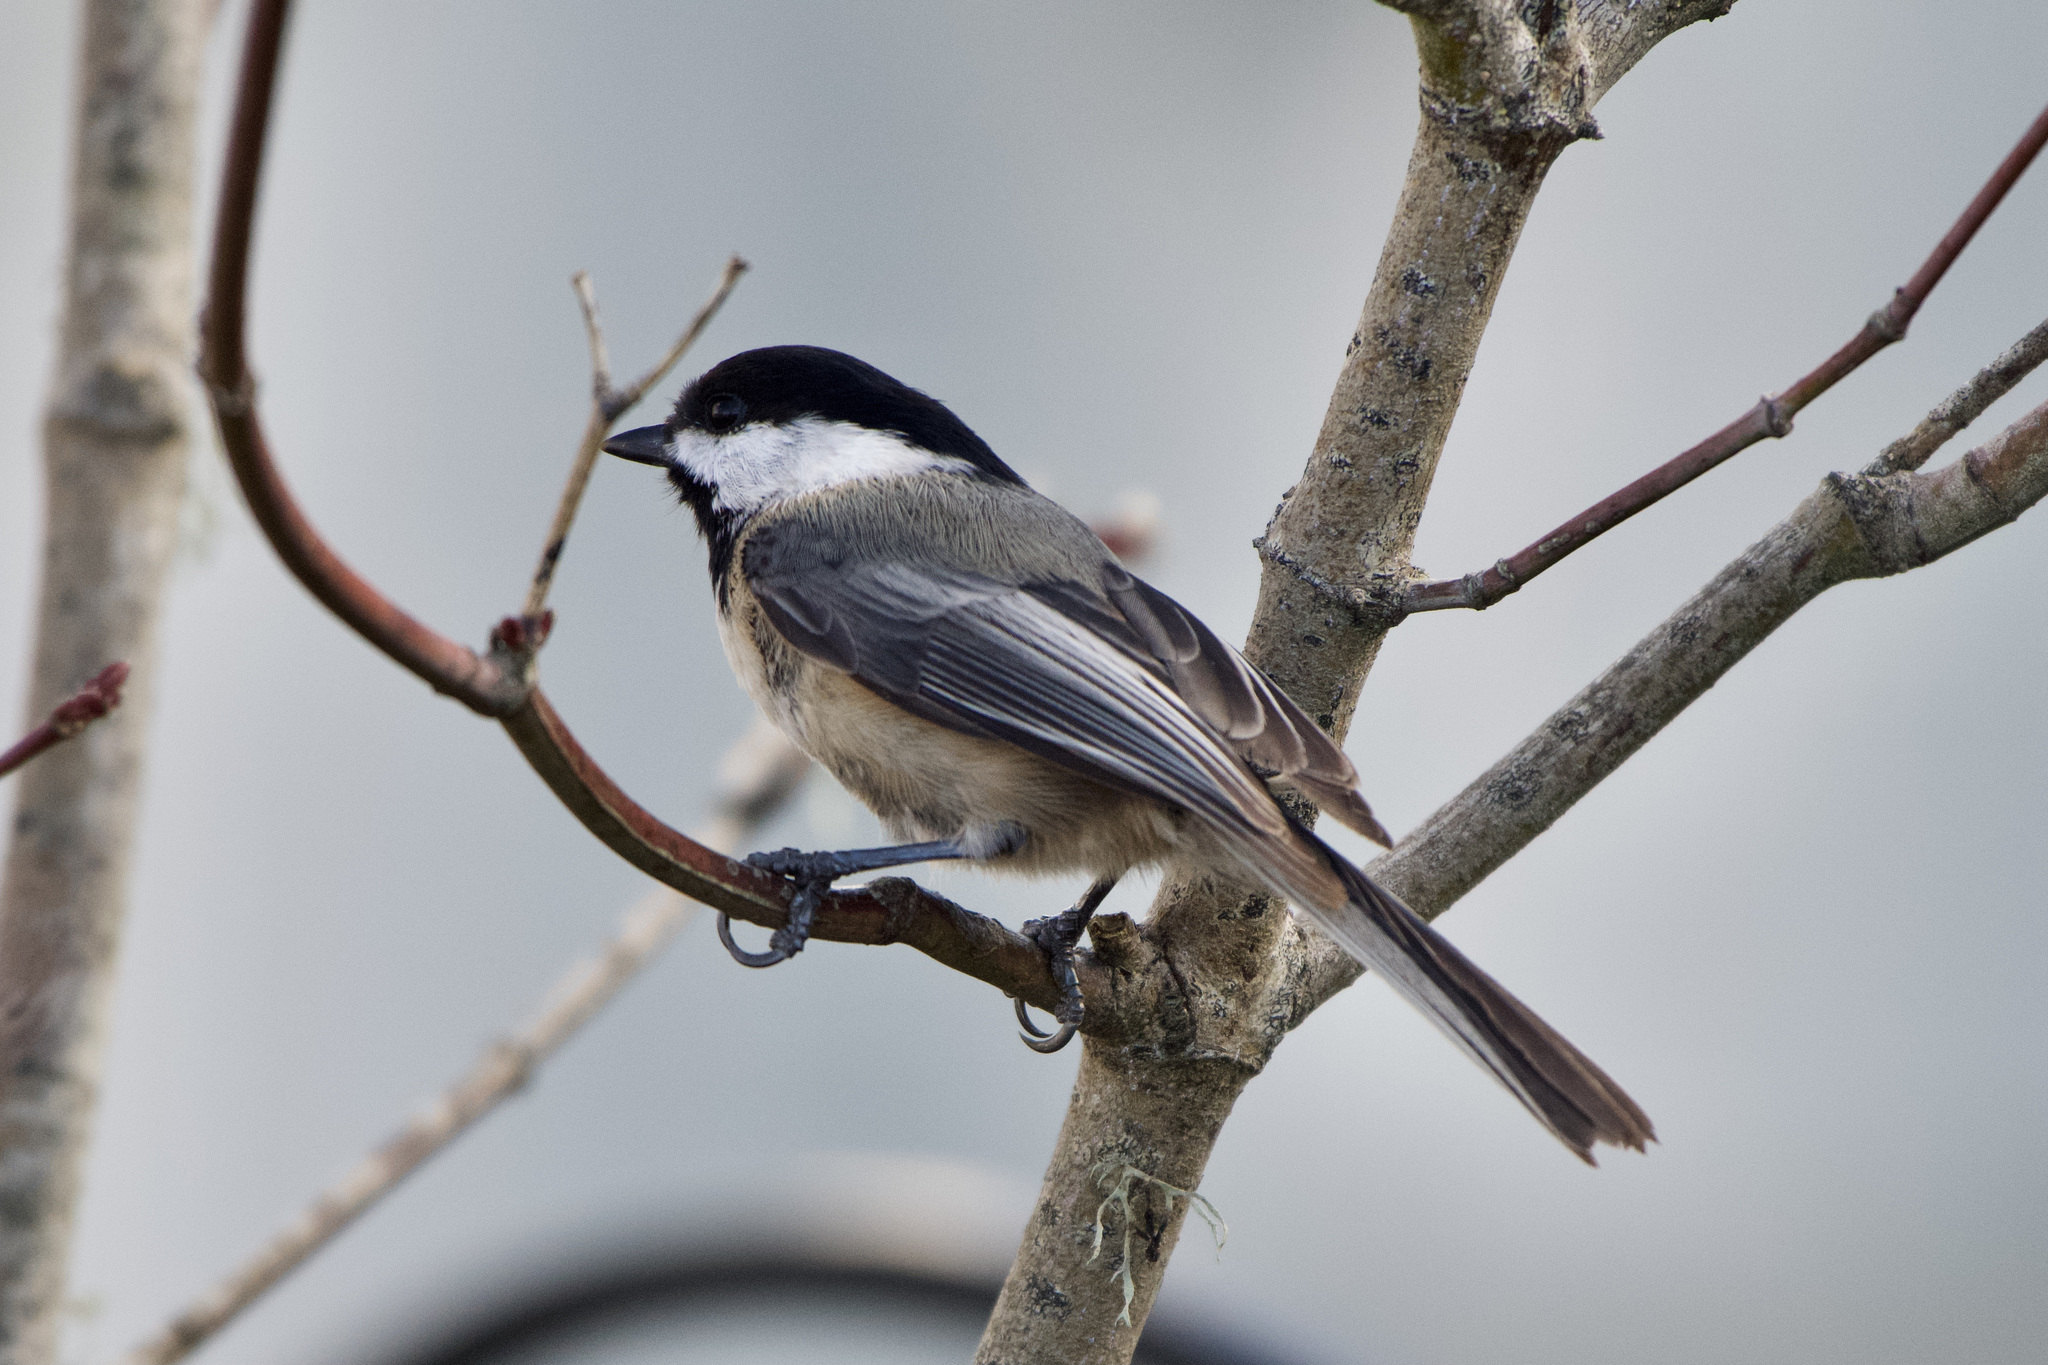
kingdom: Animalia
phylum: Chordata
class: Aves
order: Passeriformes
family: Paridae
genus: Poecile
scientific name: Poecile atricapillus
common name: Black-capped chickadee
